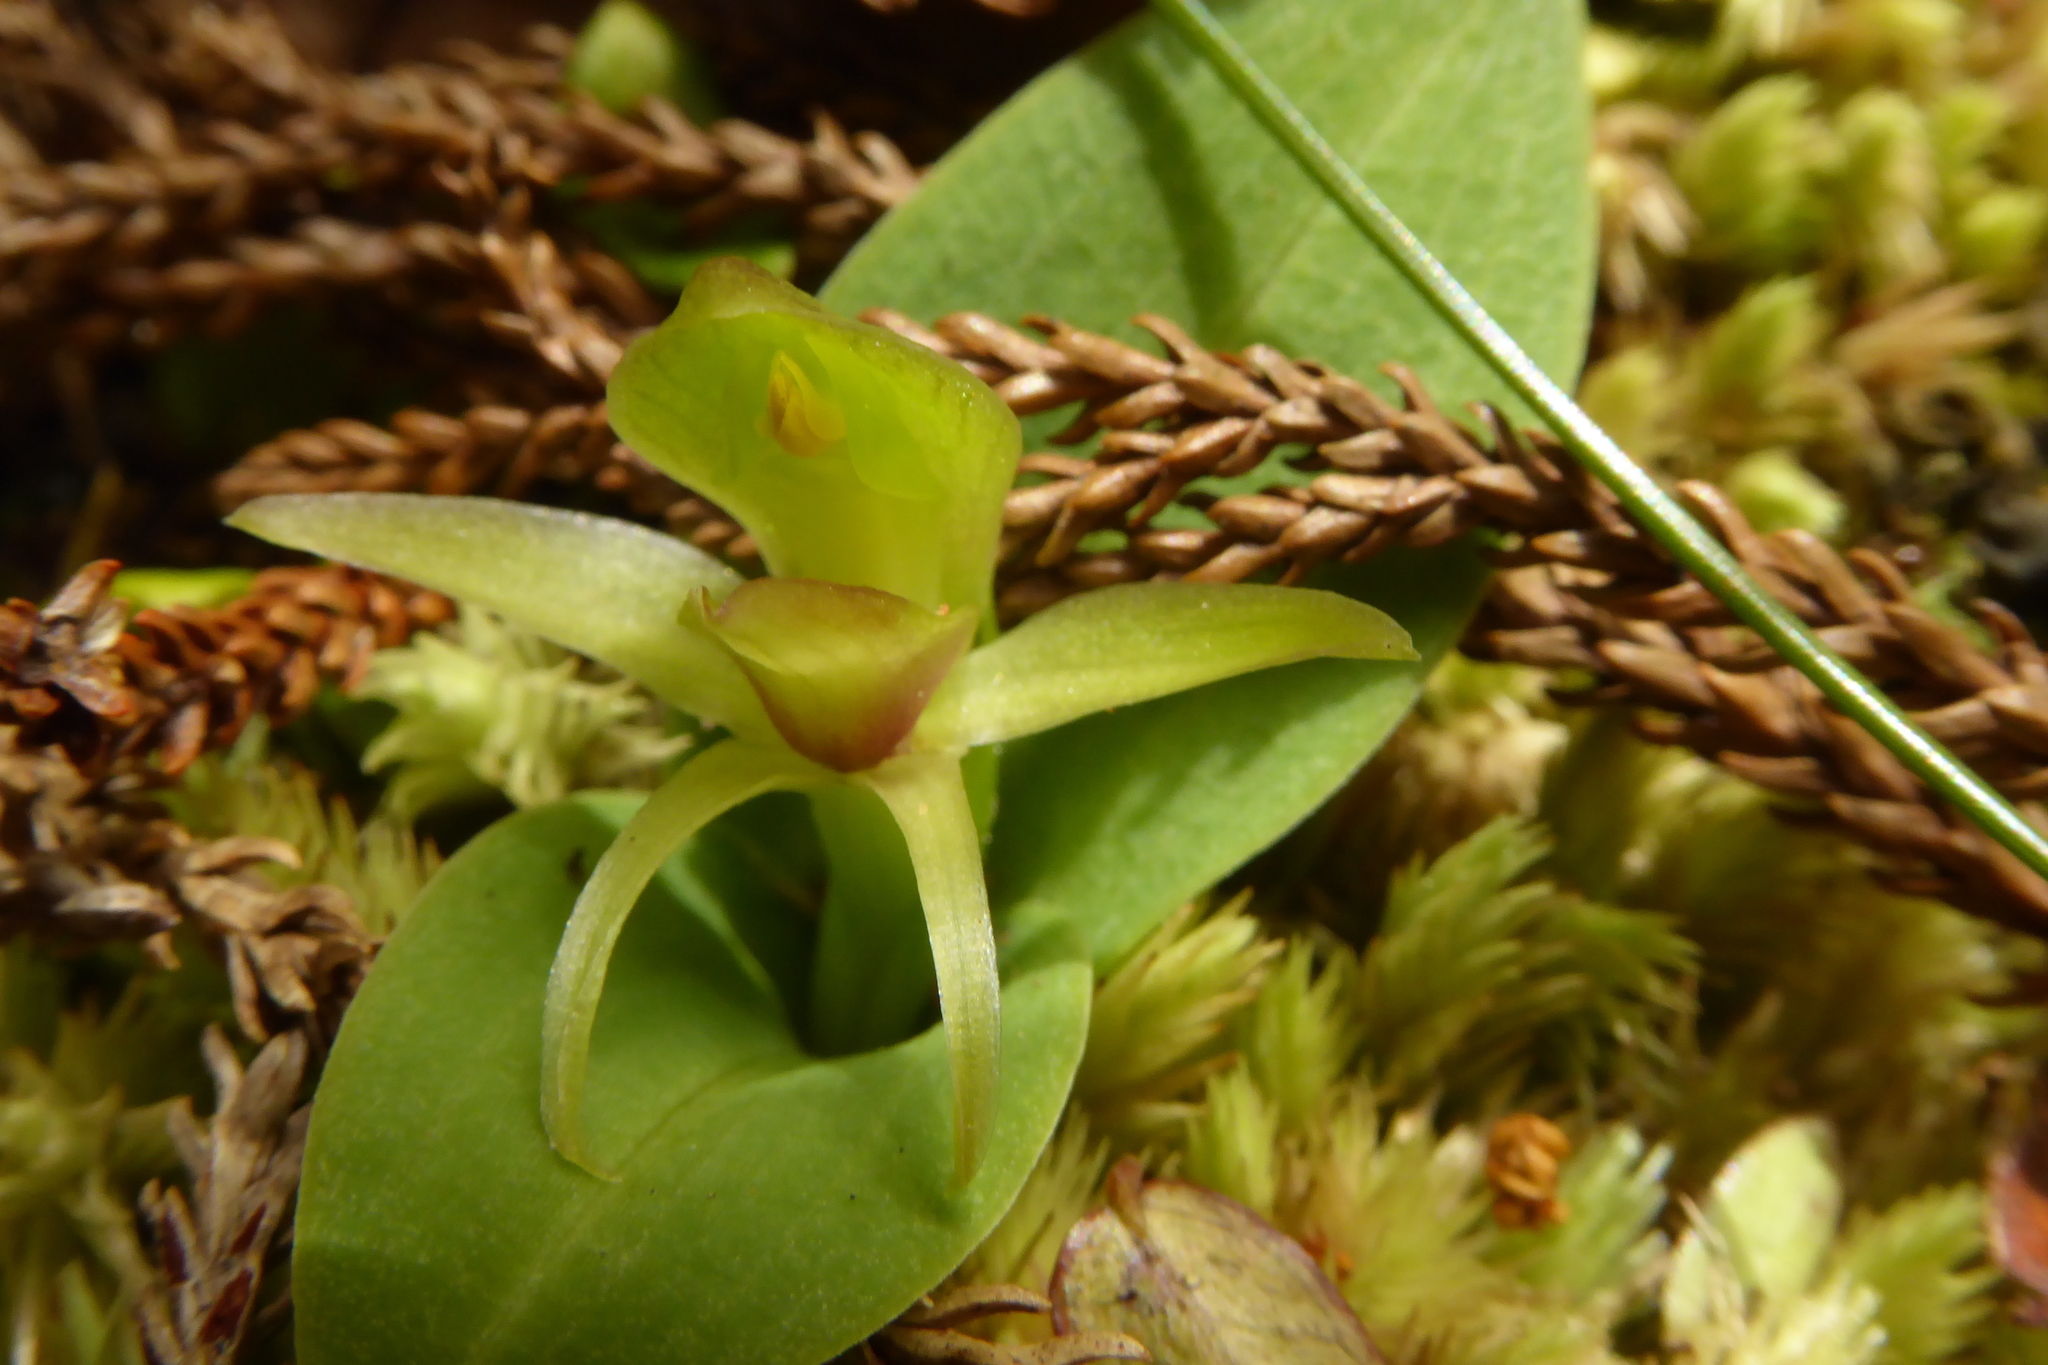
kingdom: Plantae
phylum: Tracheophyta
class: Liliopsida
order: Asparagales
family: Orchidaceae
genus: Chiloglottis
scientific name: Chiloglottis cornuta
